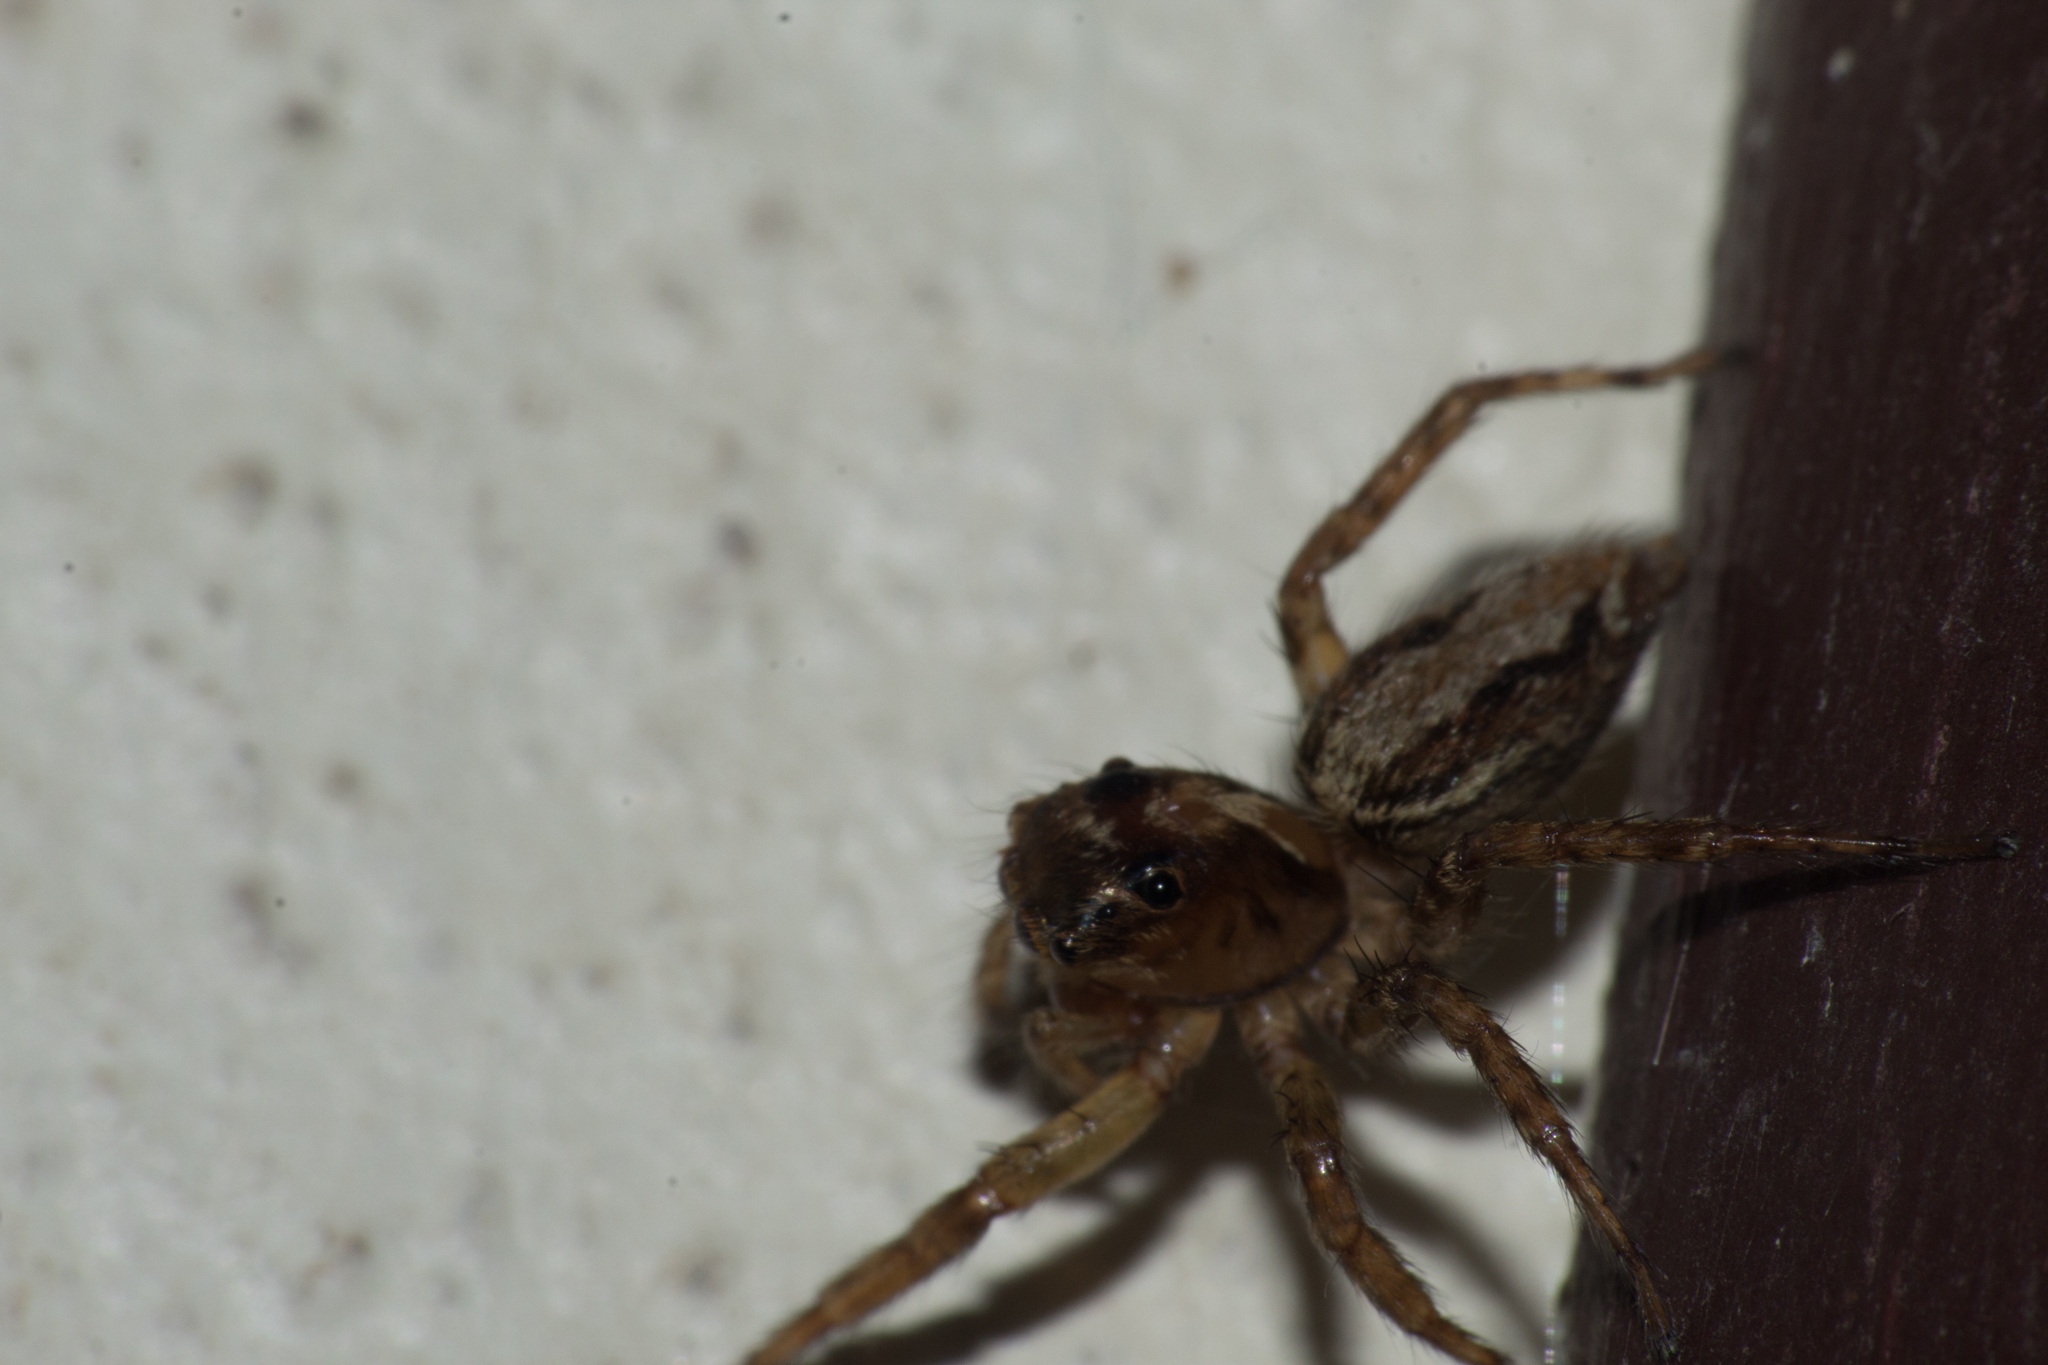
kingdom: Animalia
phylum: Arthropoda
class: Arachnida
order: Araneae
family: Salticidae
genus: Asaphobelis
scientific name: Asaphobelis physonychus
